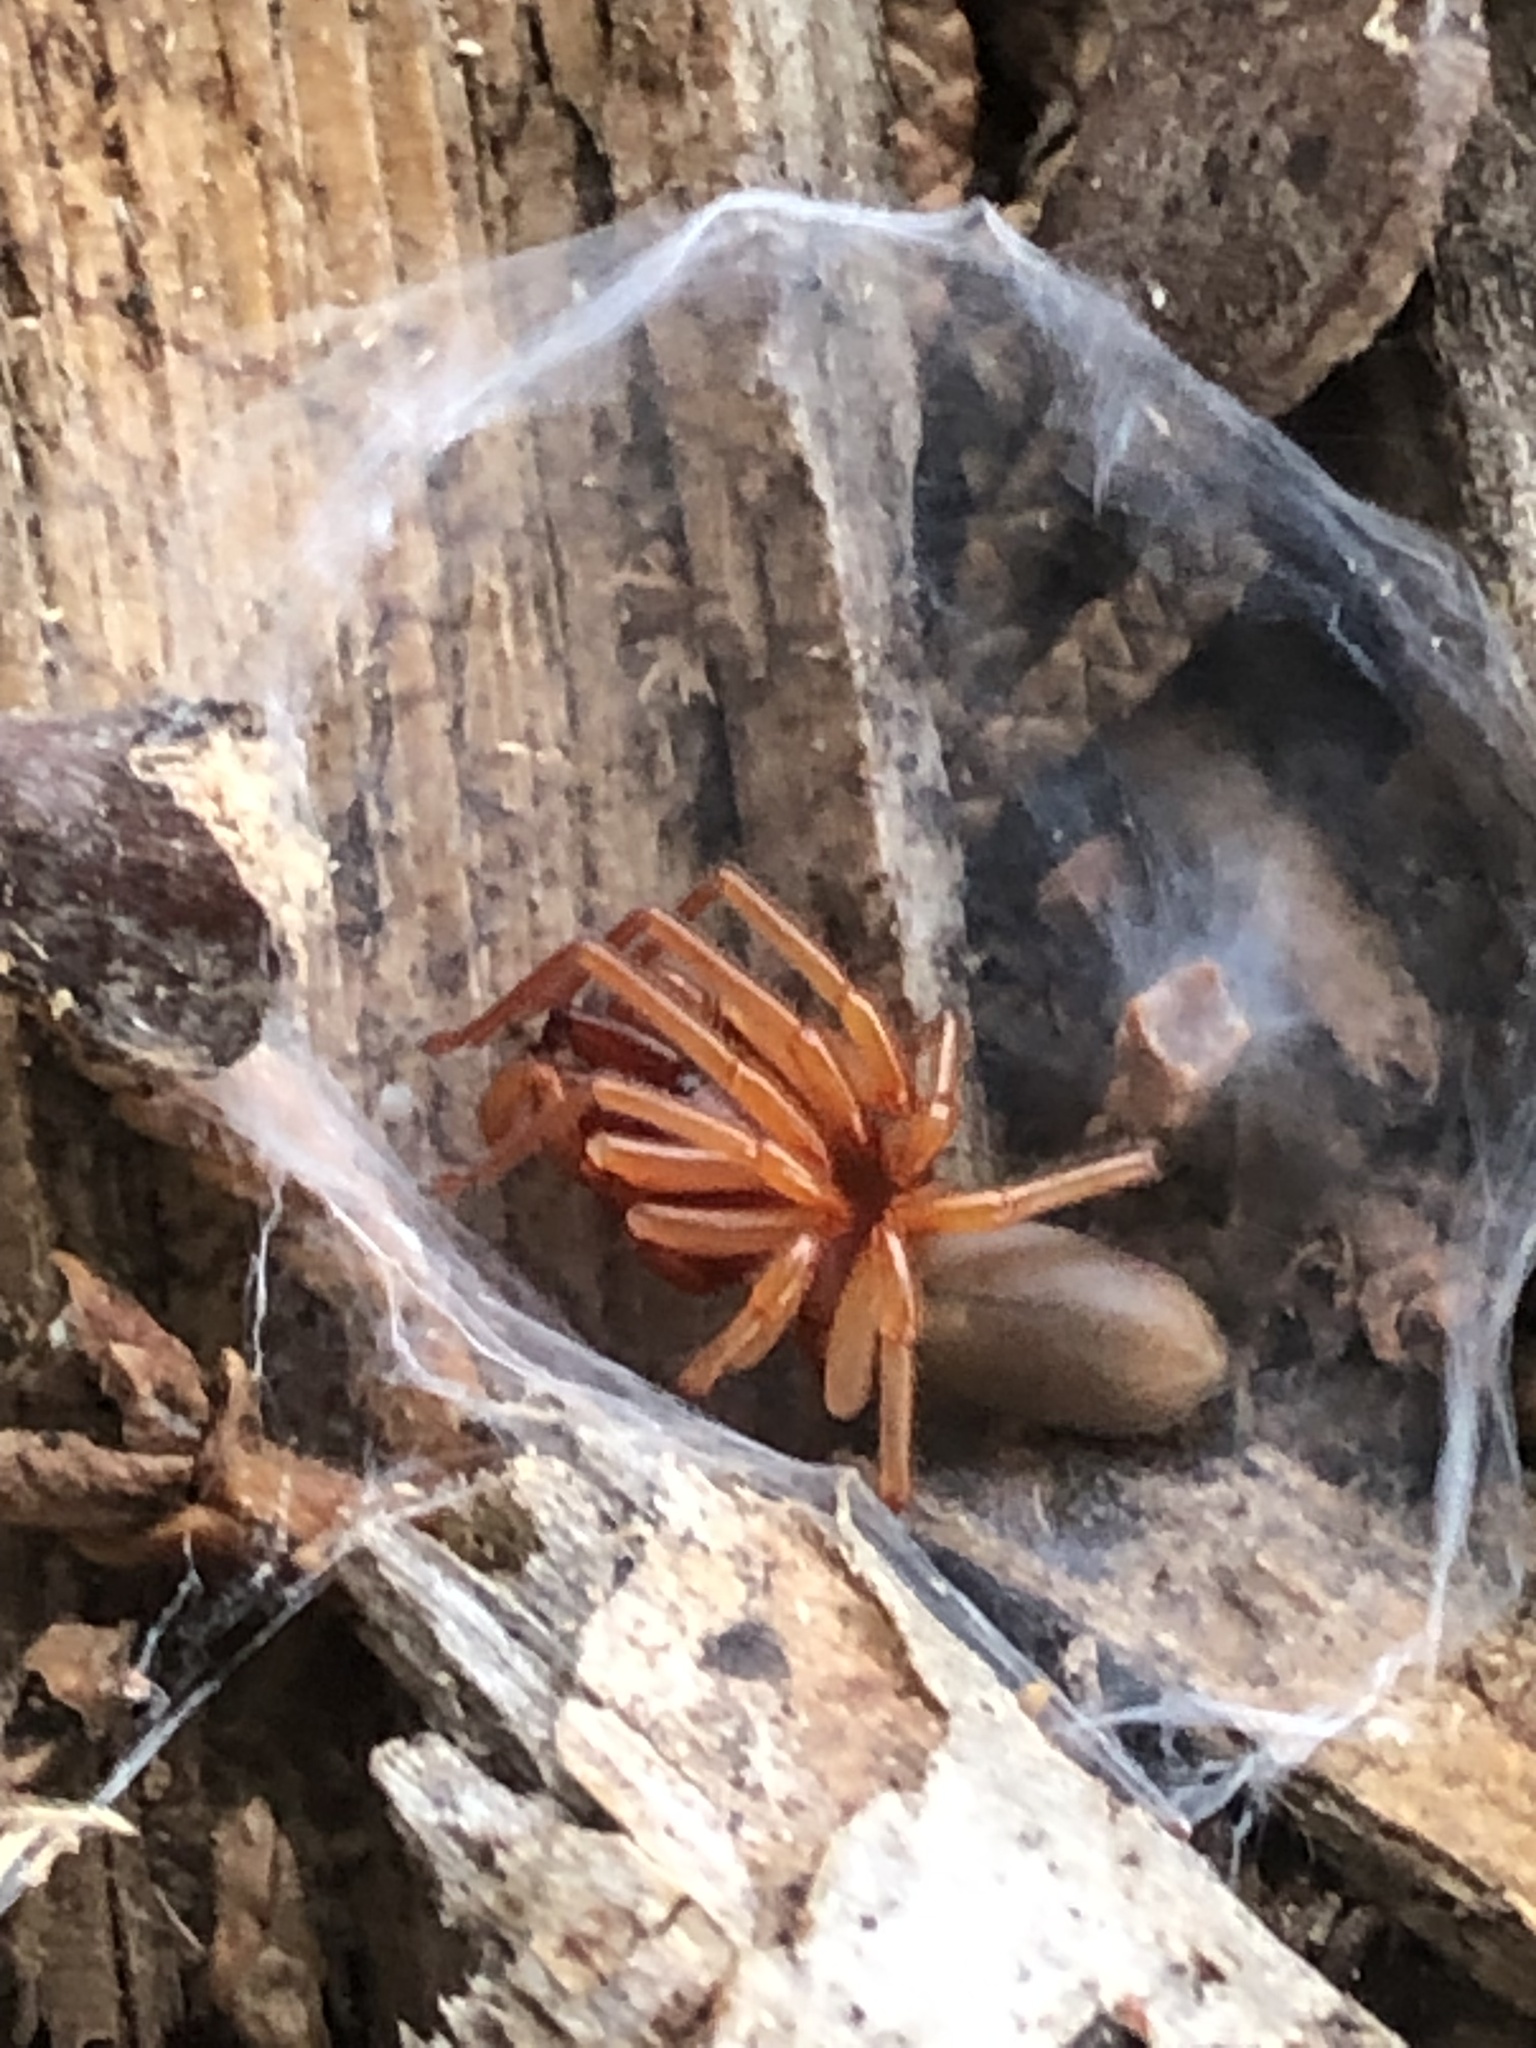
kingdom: Animalia
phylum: Arthropoda
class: Arachnida
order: Araneae
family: Dysderidae
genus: Dysdera
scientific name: Dysdera crocata
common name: Woodlouse spider
